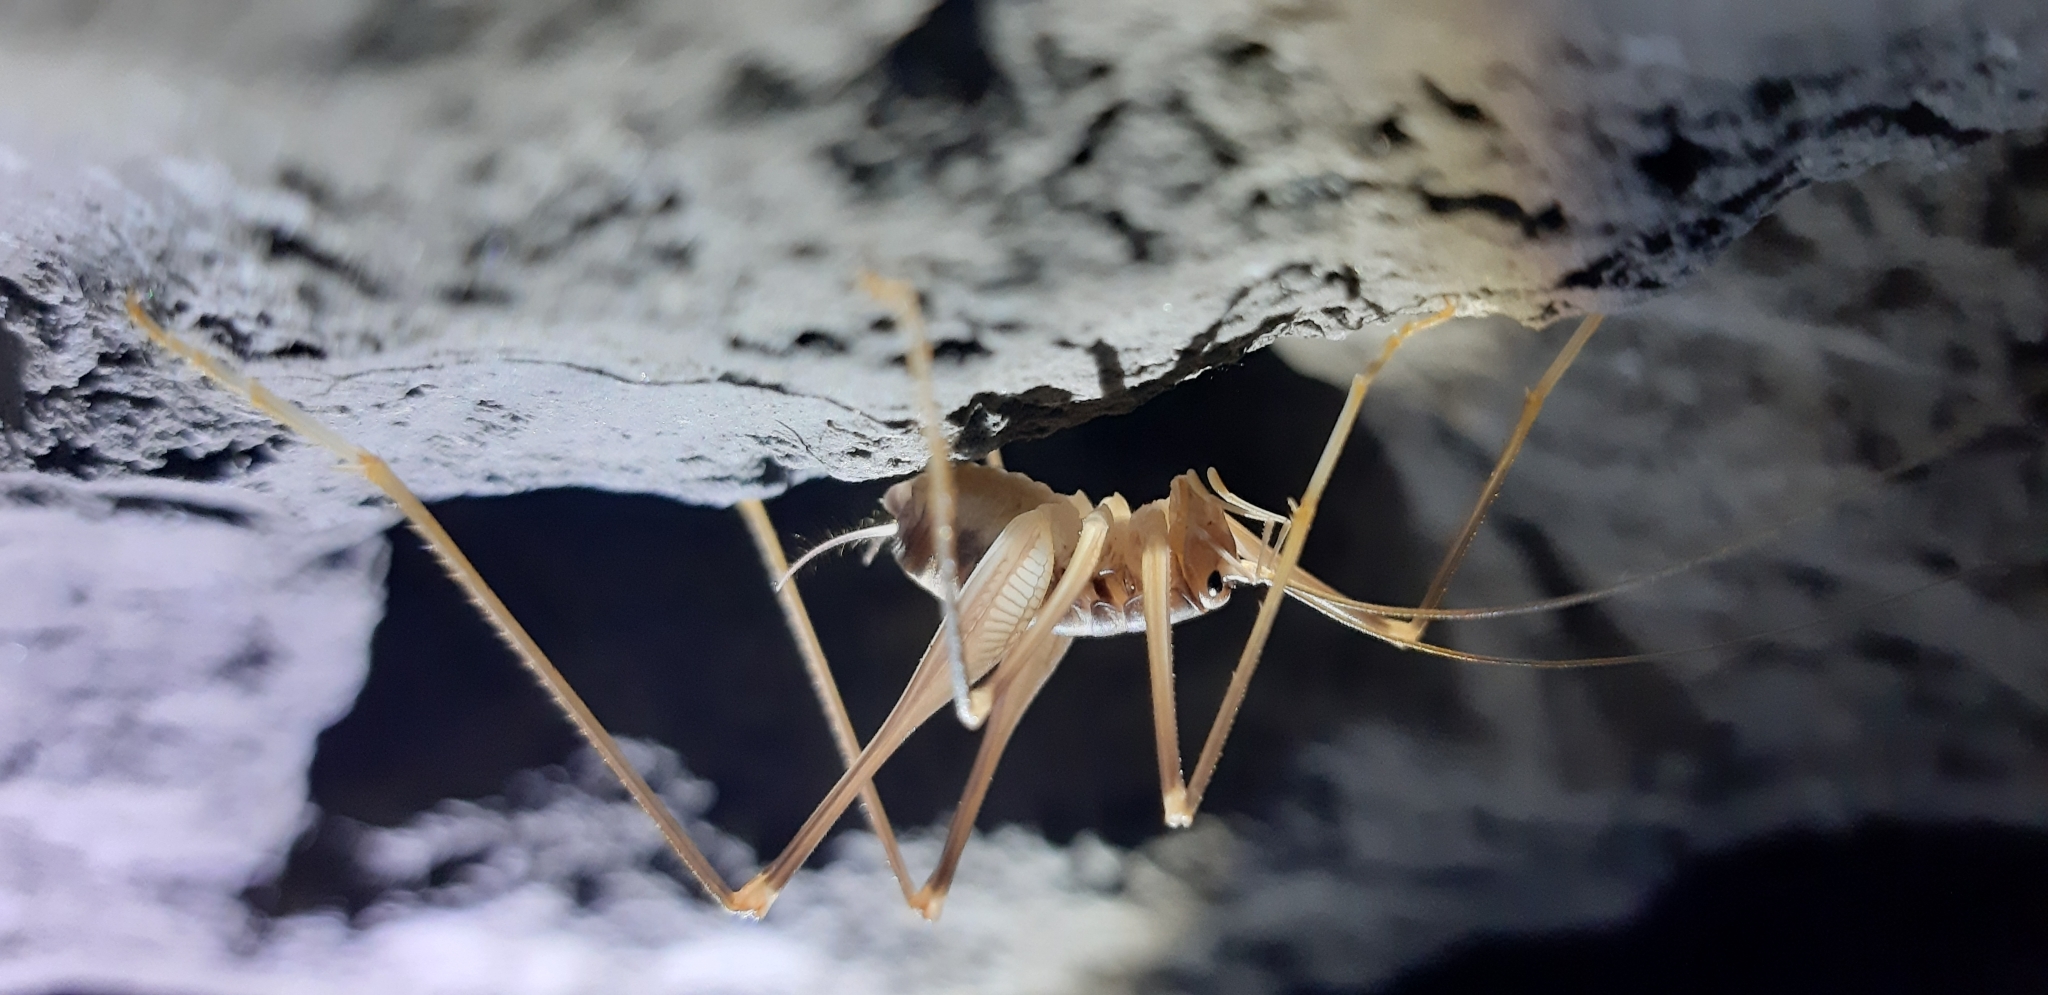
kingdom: Animalia
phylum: Arthropoda
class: Insecta
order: Orthoptera
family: Rhaphidophoridae
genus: Dolichopoda
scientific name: Dolichopoda geniculata
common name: Bended cave-cricket
